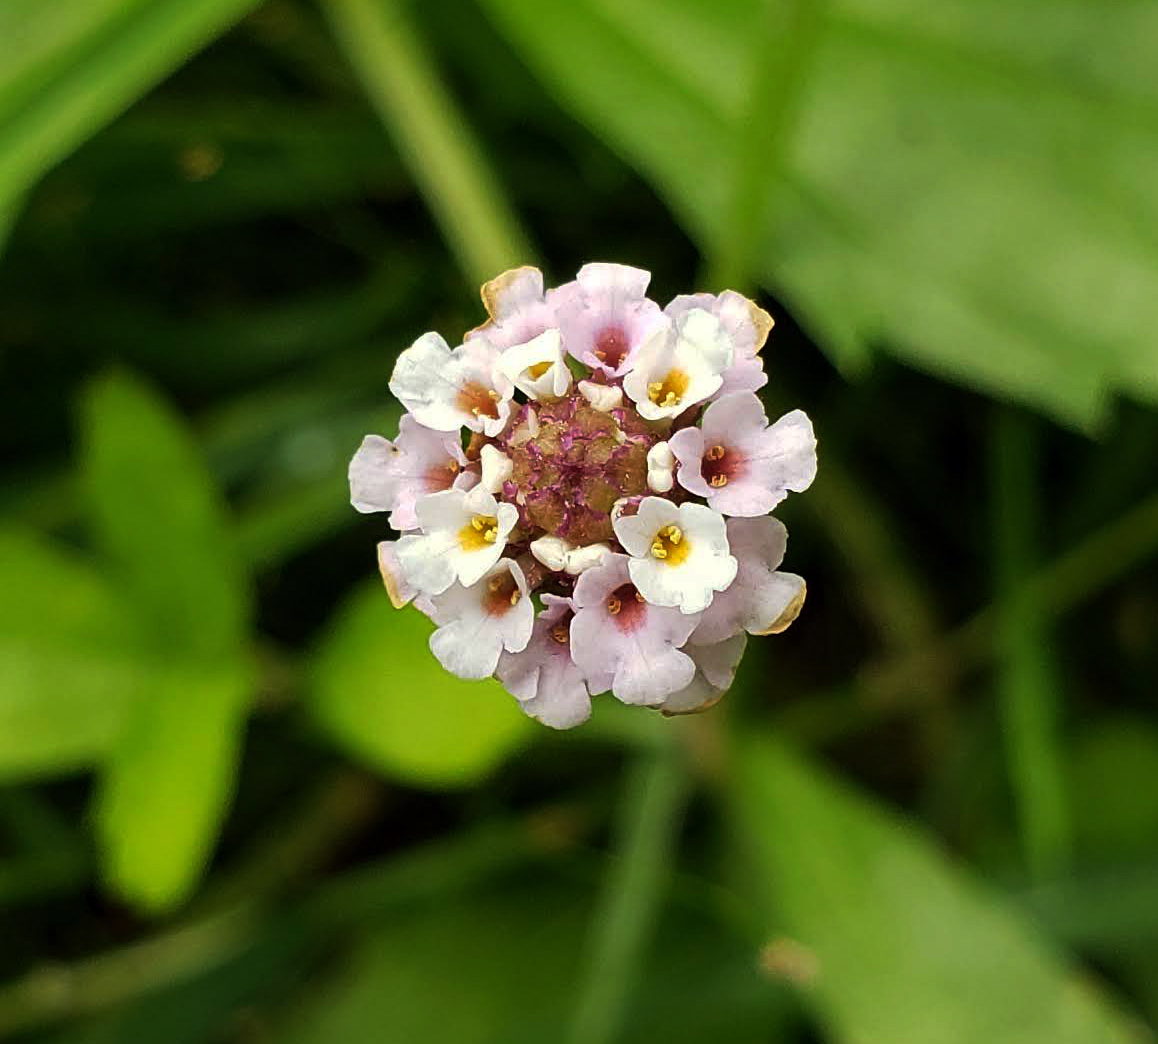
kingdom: Plantae
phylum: Tracheophyta
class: Magnoliopsida
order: Lamiales
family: Verbenaceae
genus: Phyla
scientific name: Phyla lanceolata
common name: Northern fogfruit
